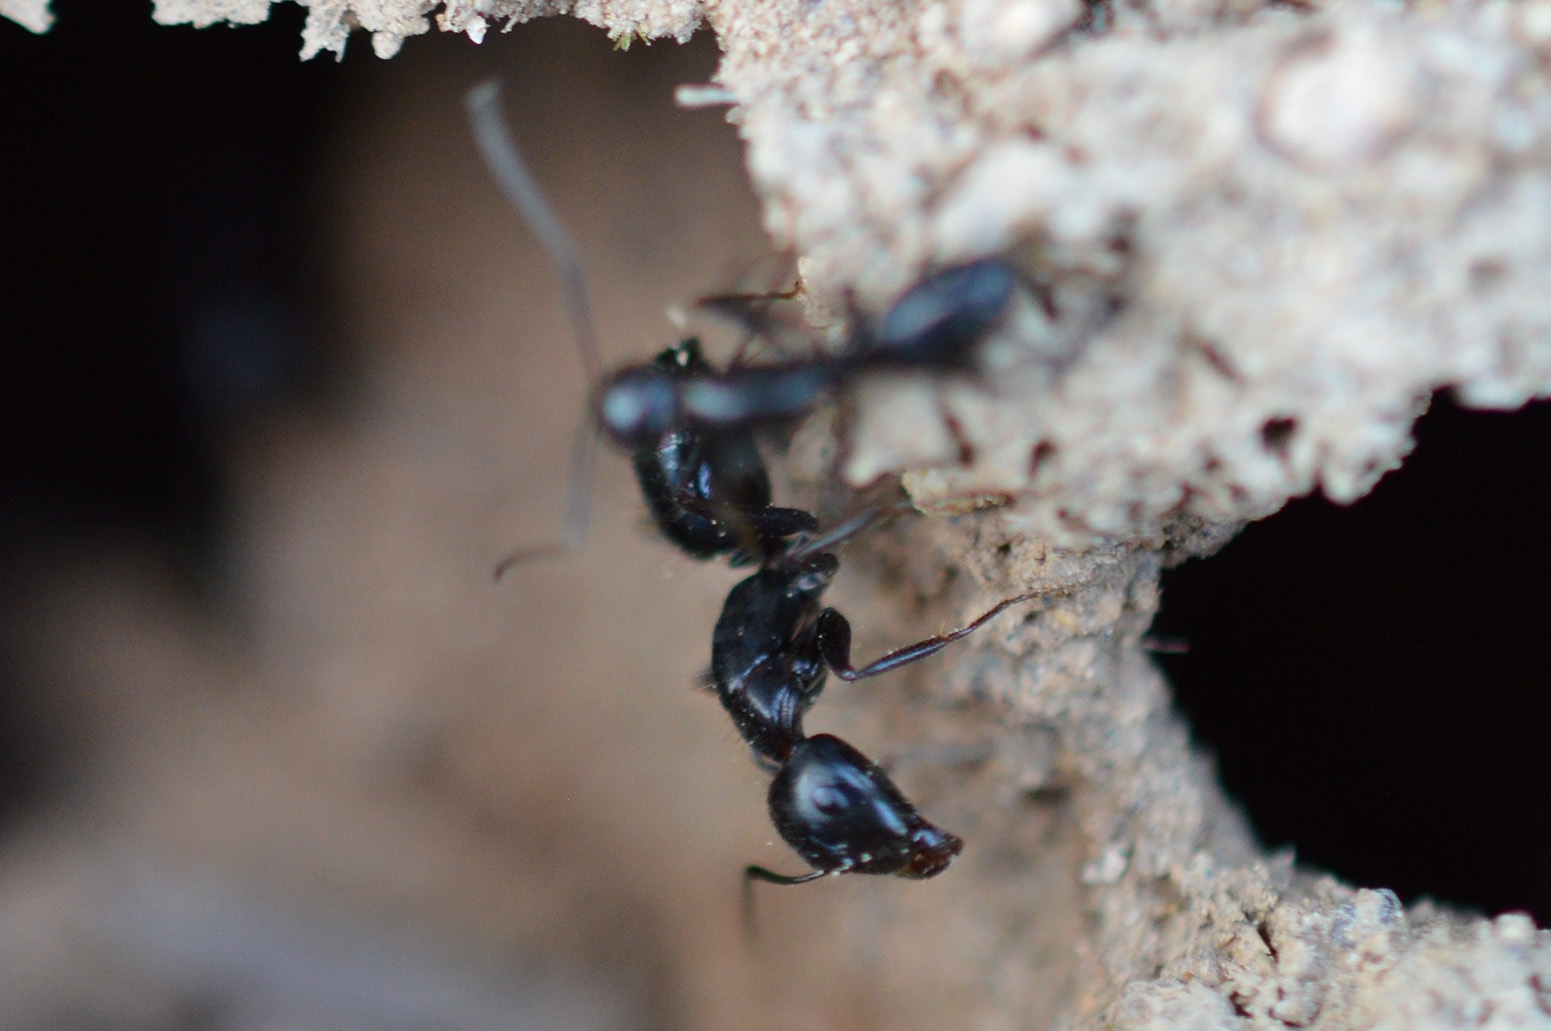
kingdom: Animalia
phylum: Arthropoda
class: Insecta
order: Hymenoptera
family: Formicidae
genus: Camponotus
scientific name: Camponotus aethiops
